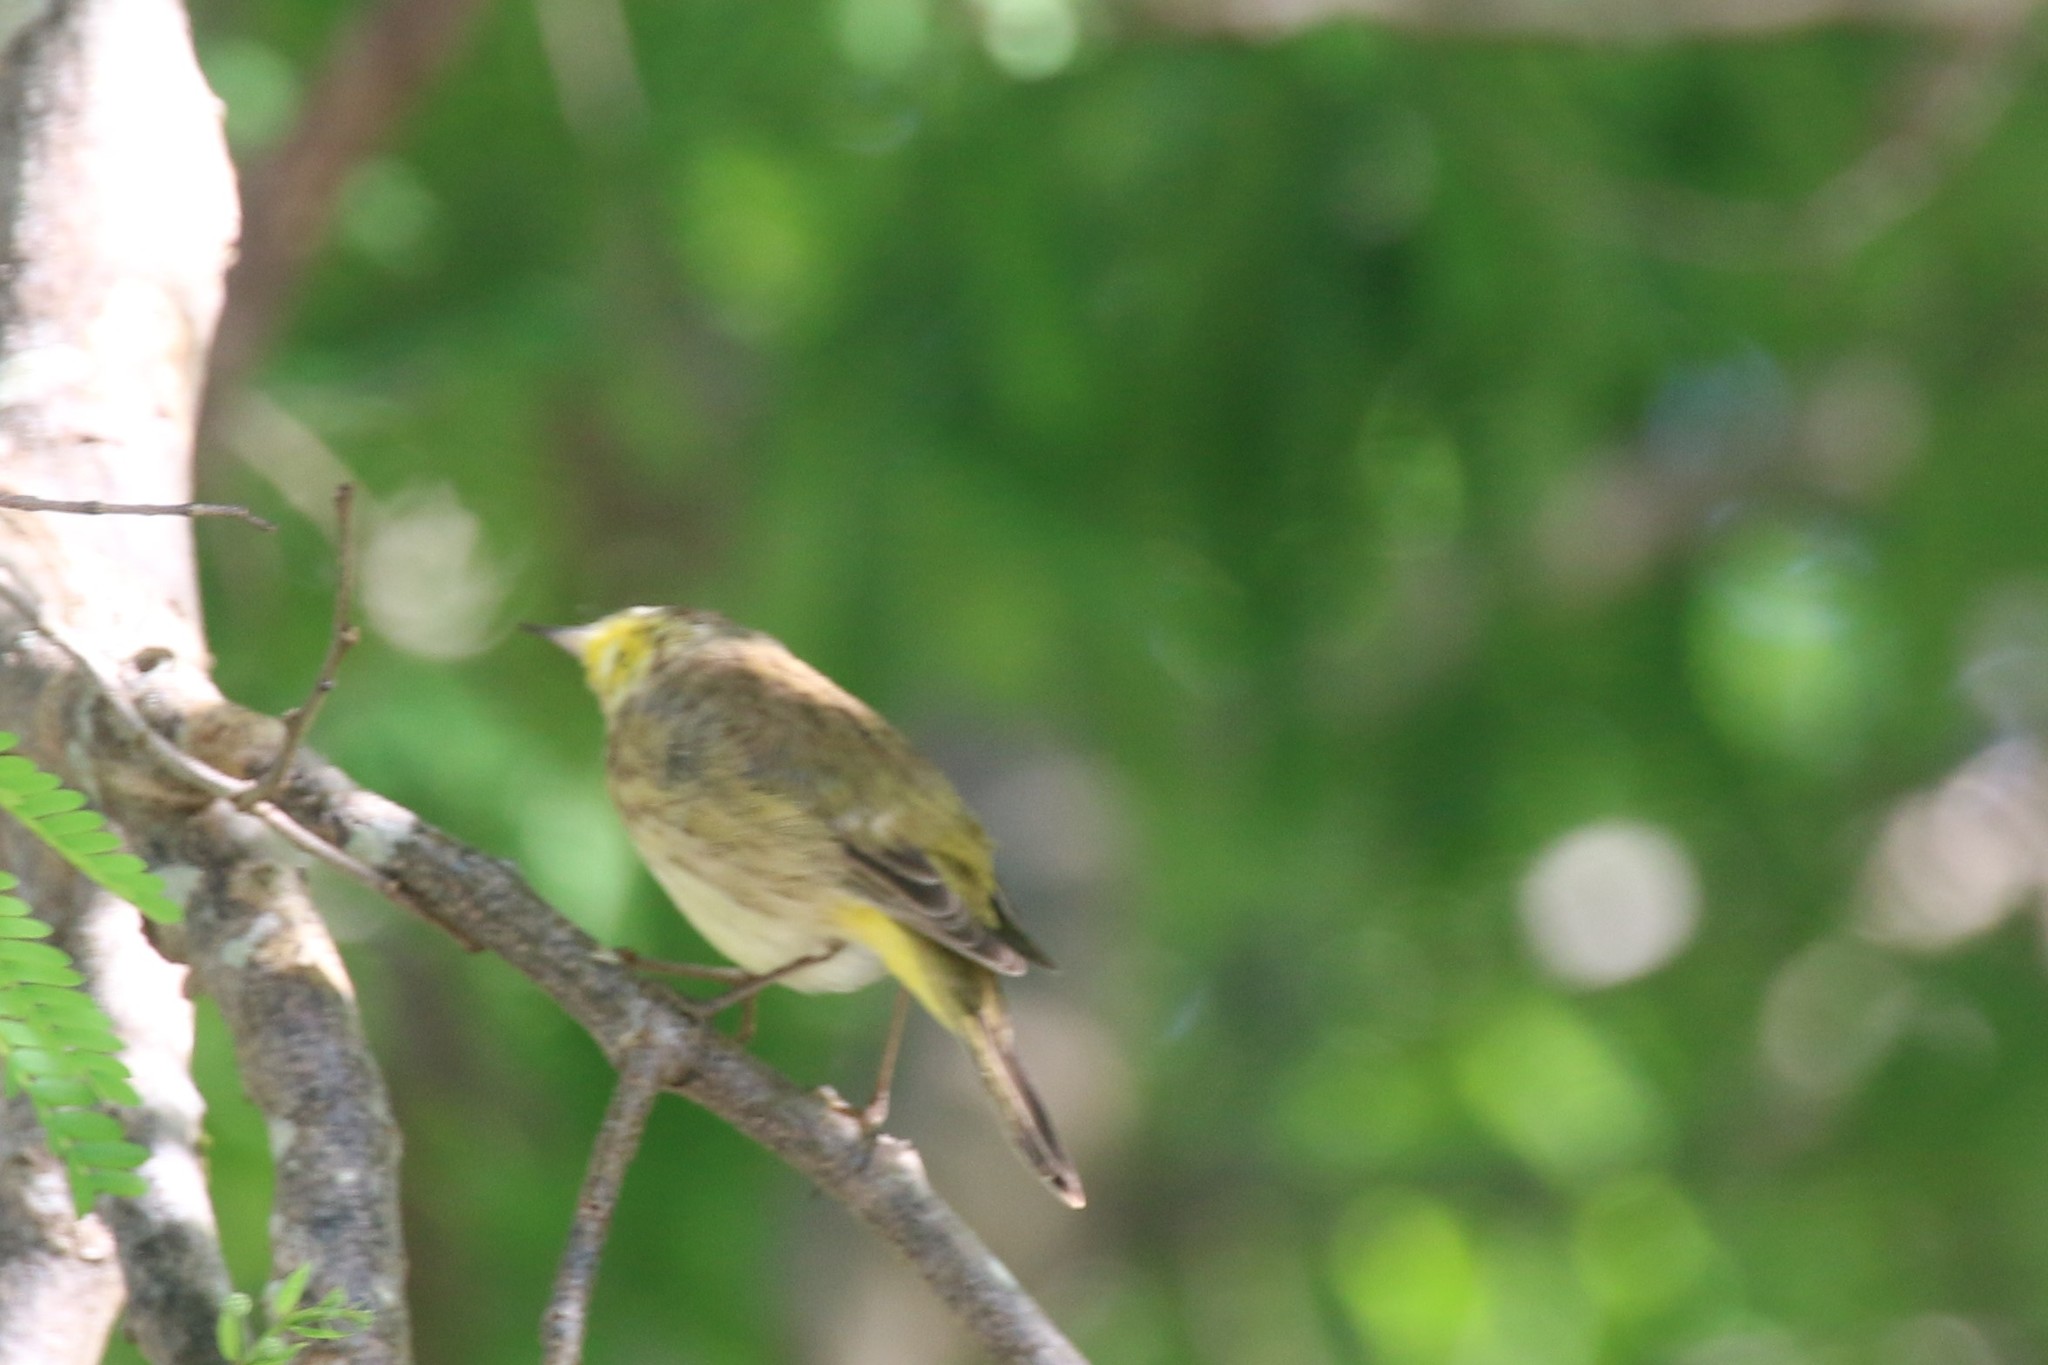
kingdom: Animalia
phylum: Chordata
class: Aves
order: Passeriformes
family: Parulidae
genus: Setophaga
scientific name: Setophaga palmarum
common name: Palm warbler
